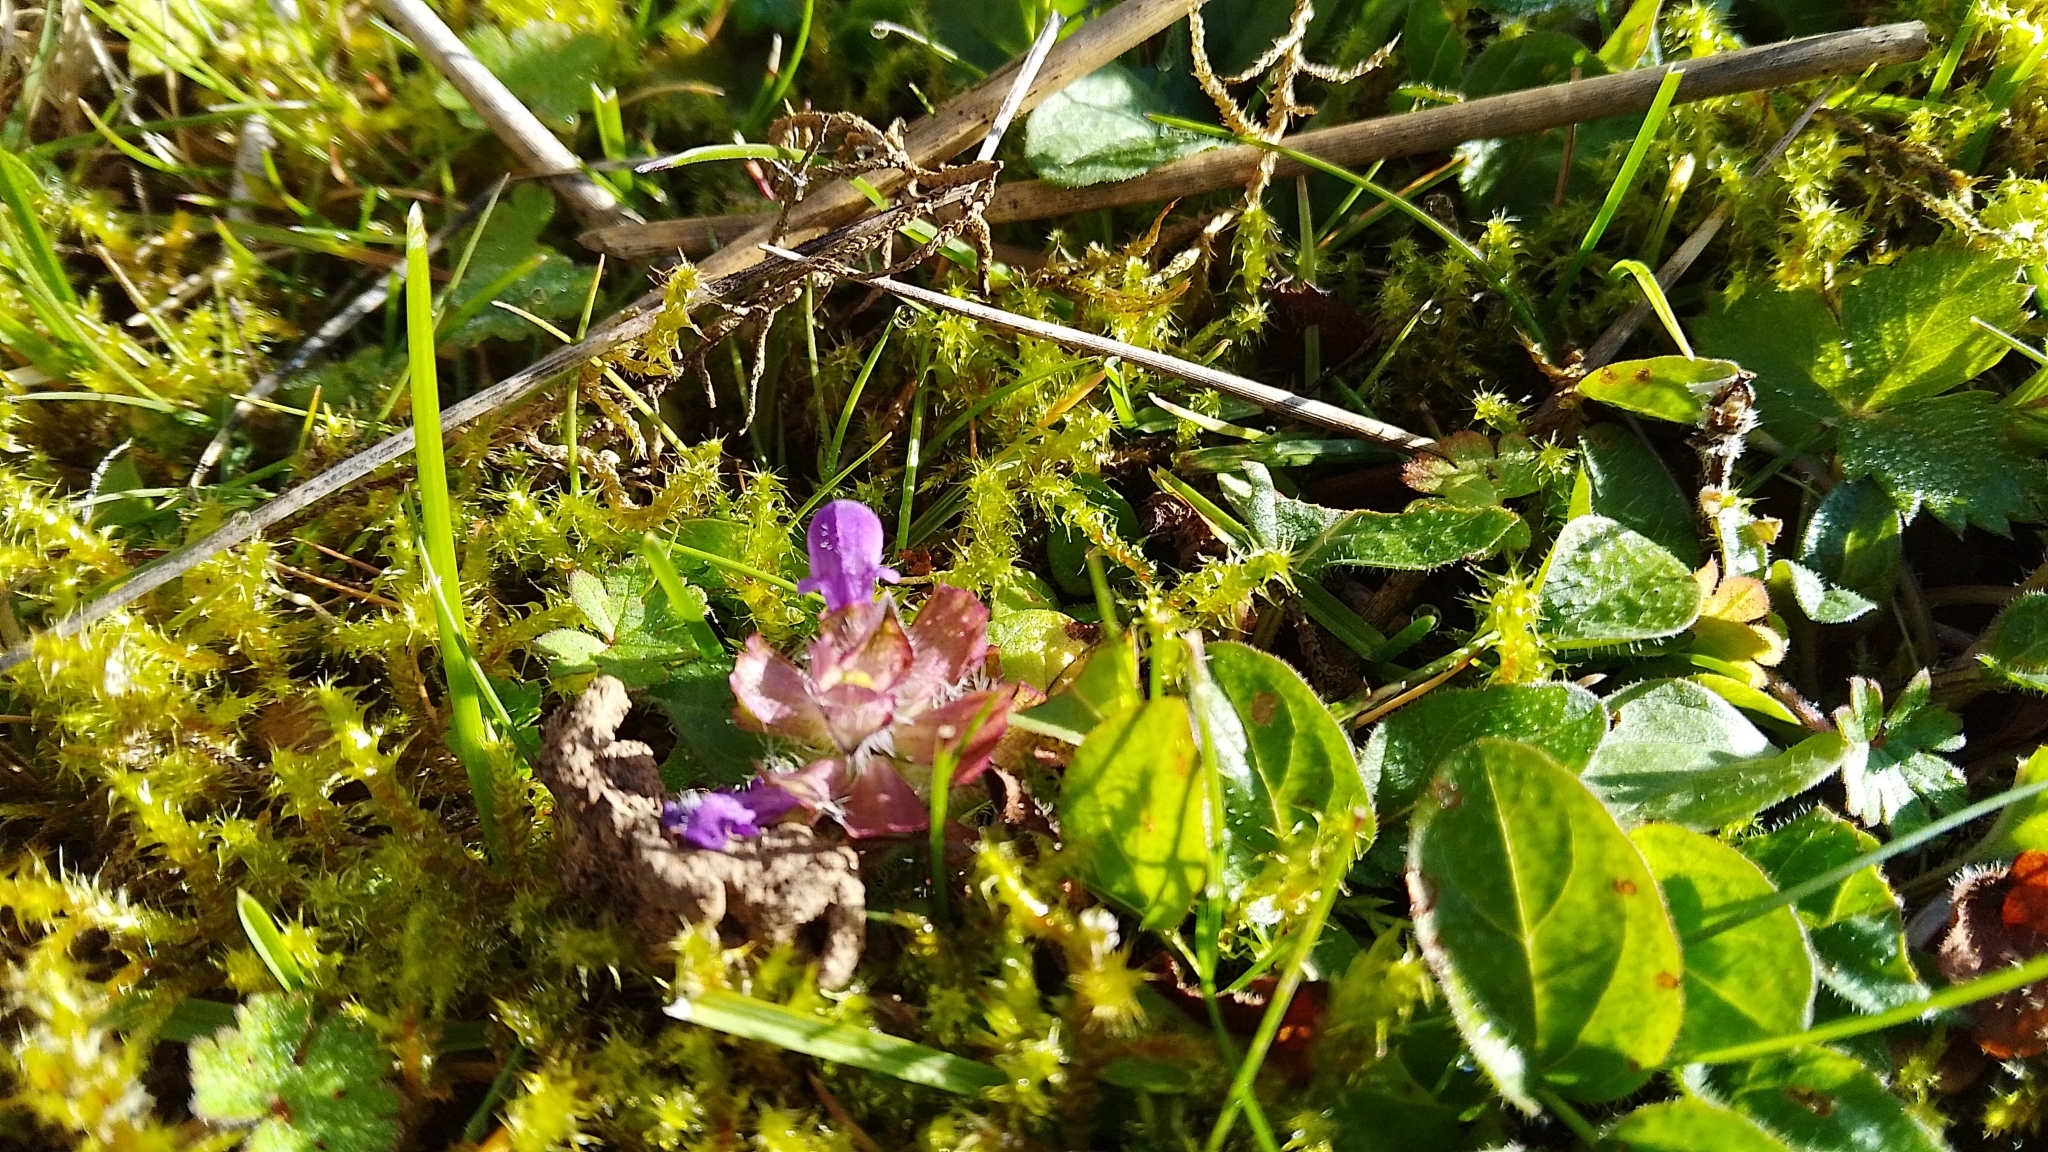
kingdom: Plantae
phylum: Tracheophyta
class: Magnoliopsida
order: Lamiales
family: Lamiaceae
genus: Prunella
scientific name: Prunella vulgaris
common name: Heal-all
